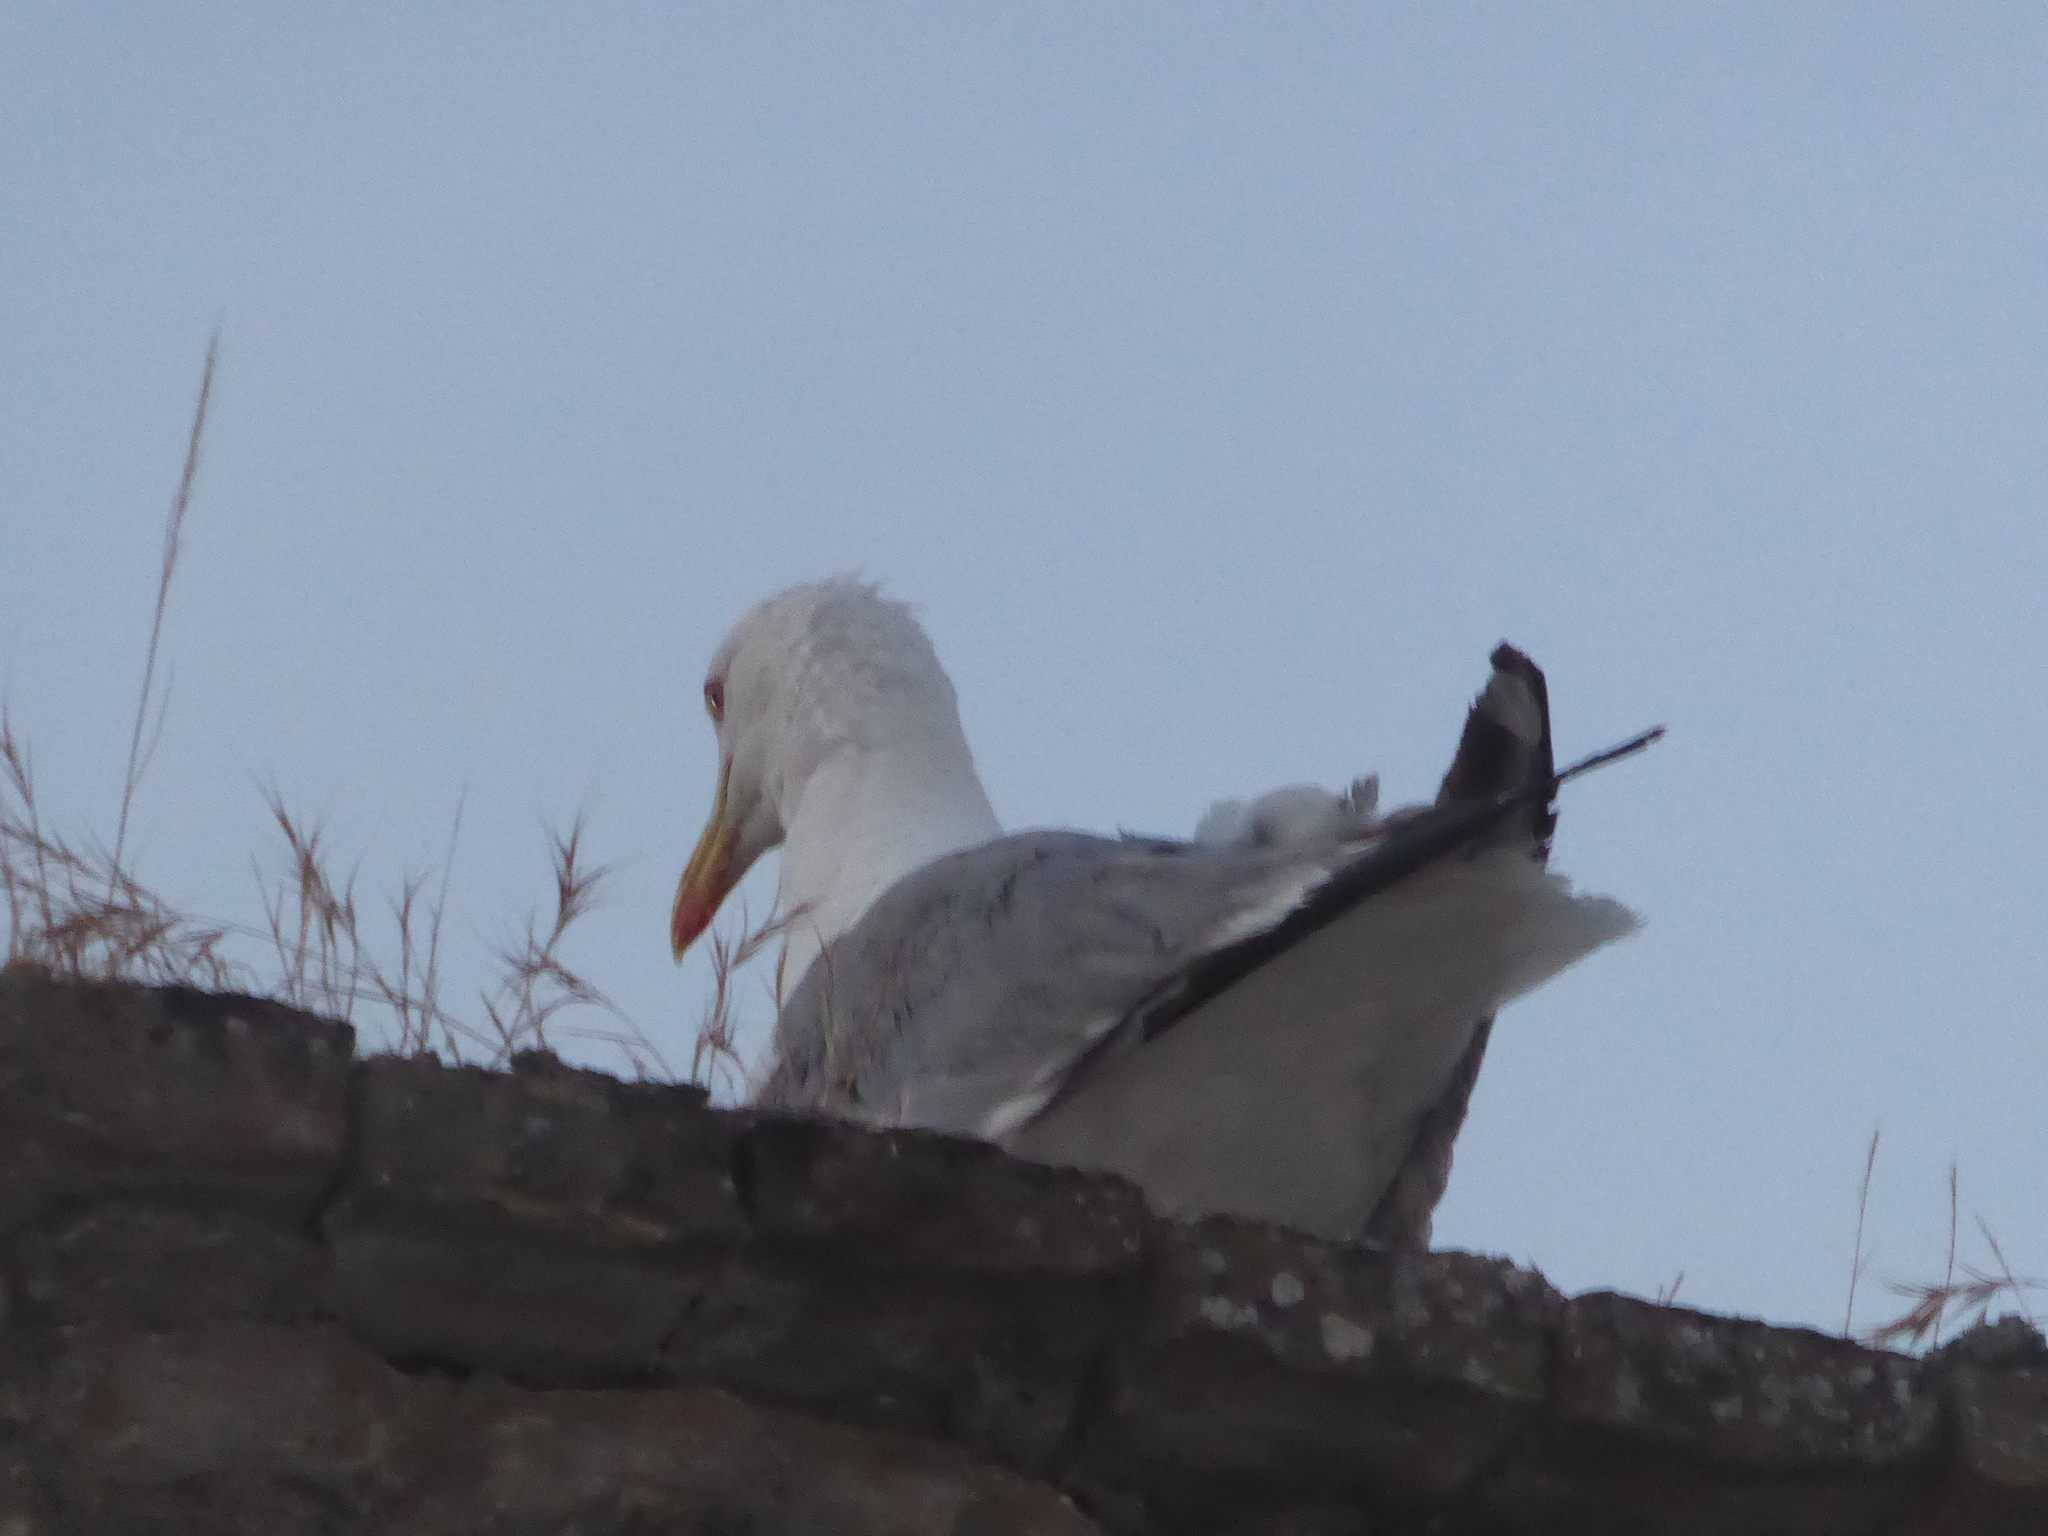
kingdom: Animalia
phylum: Chordata
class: Aves
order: Charadriiformes
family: Laridae
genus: Larus
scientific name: Larus michahellis
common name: Yellow-legged gull
